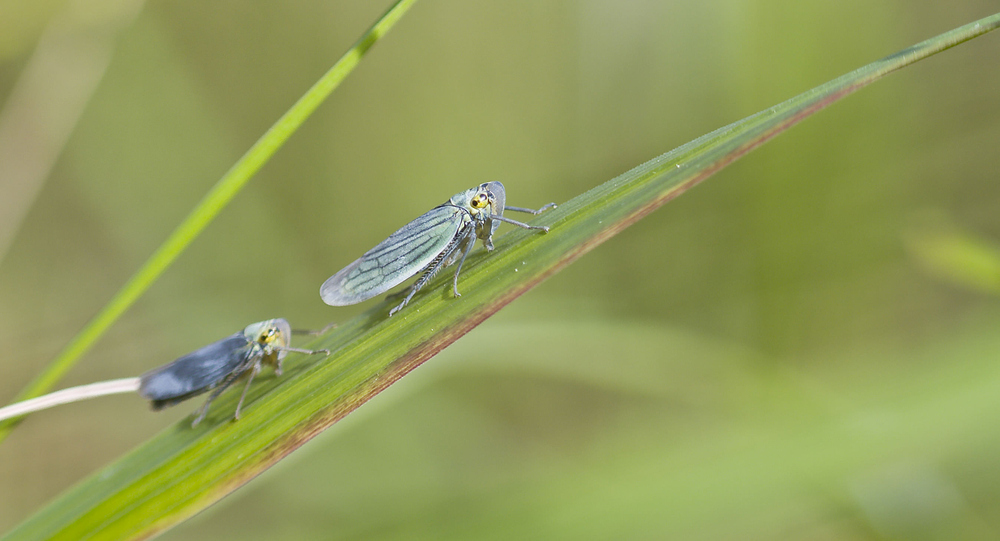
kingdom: Animalia
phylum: Arthropoda
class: Insecta
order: Hemiptera
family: Cicadellidae
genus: Cicadella
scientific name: Cicadella viridis
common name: Leafhopper
